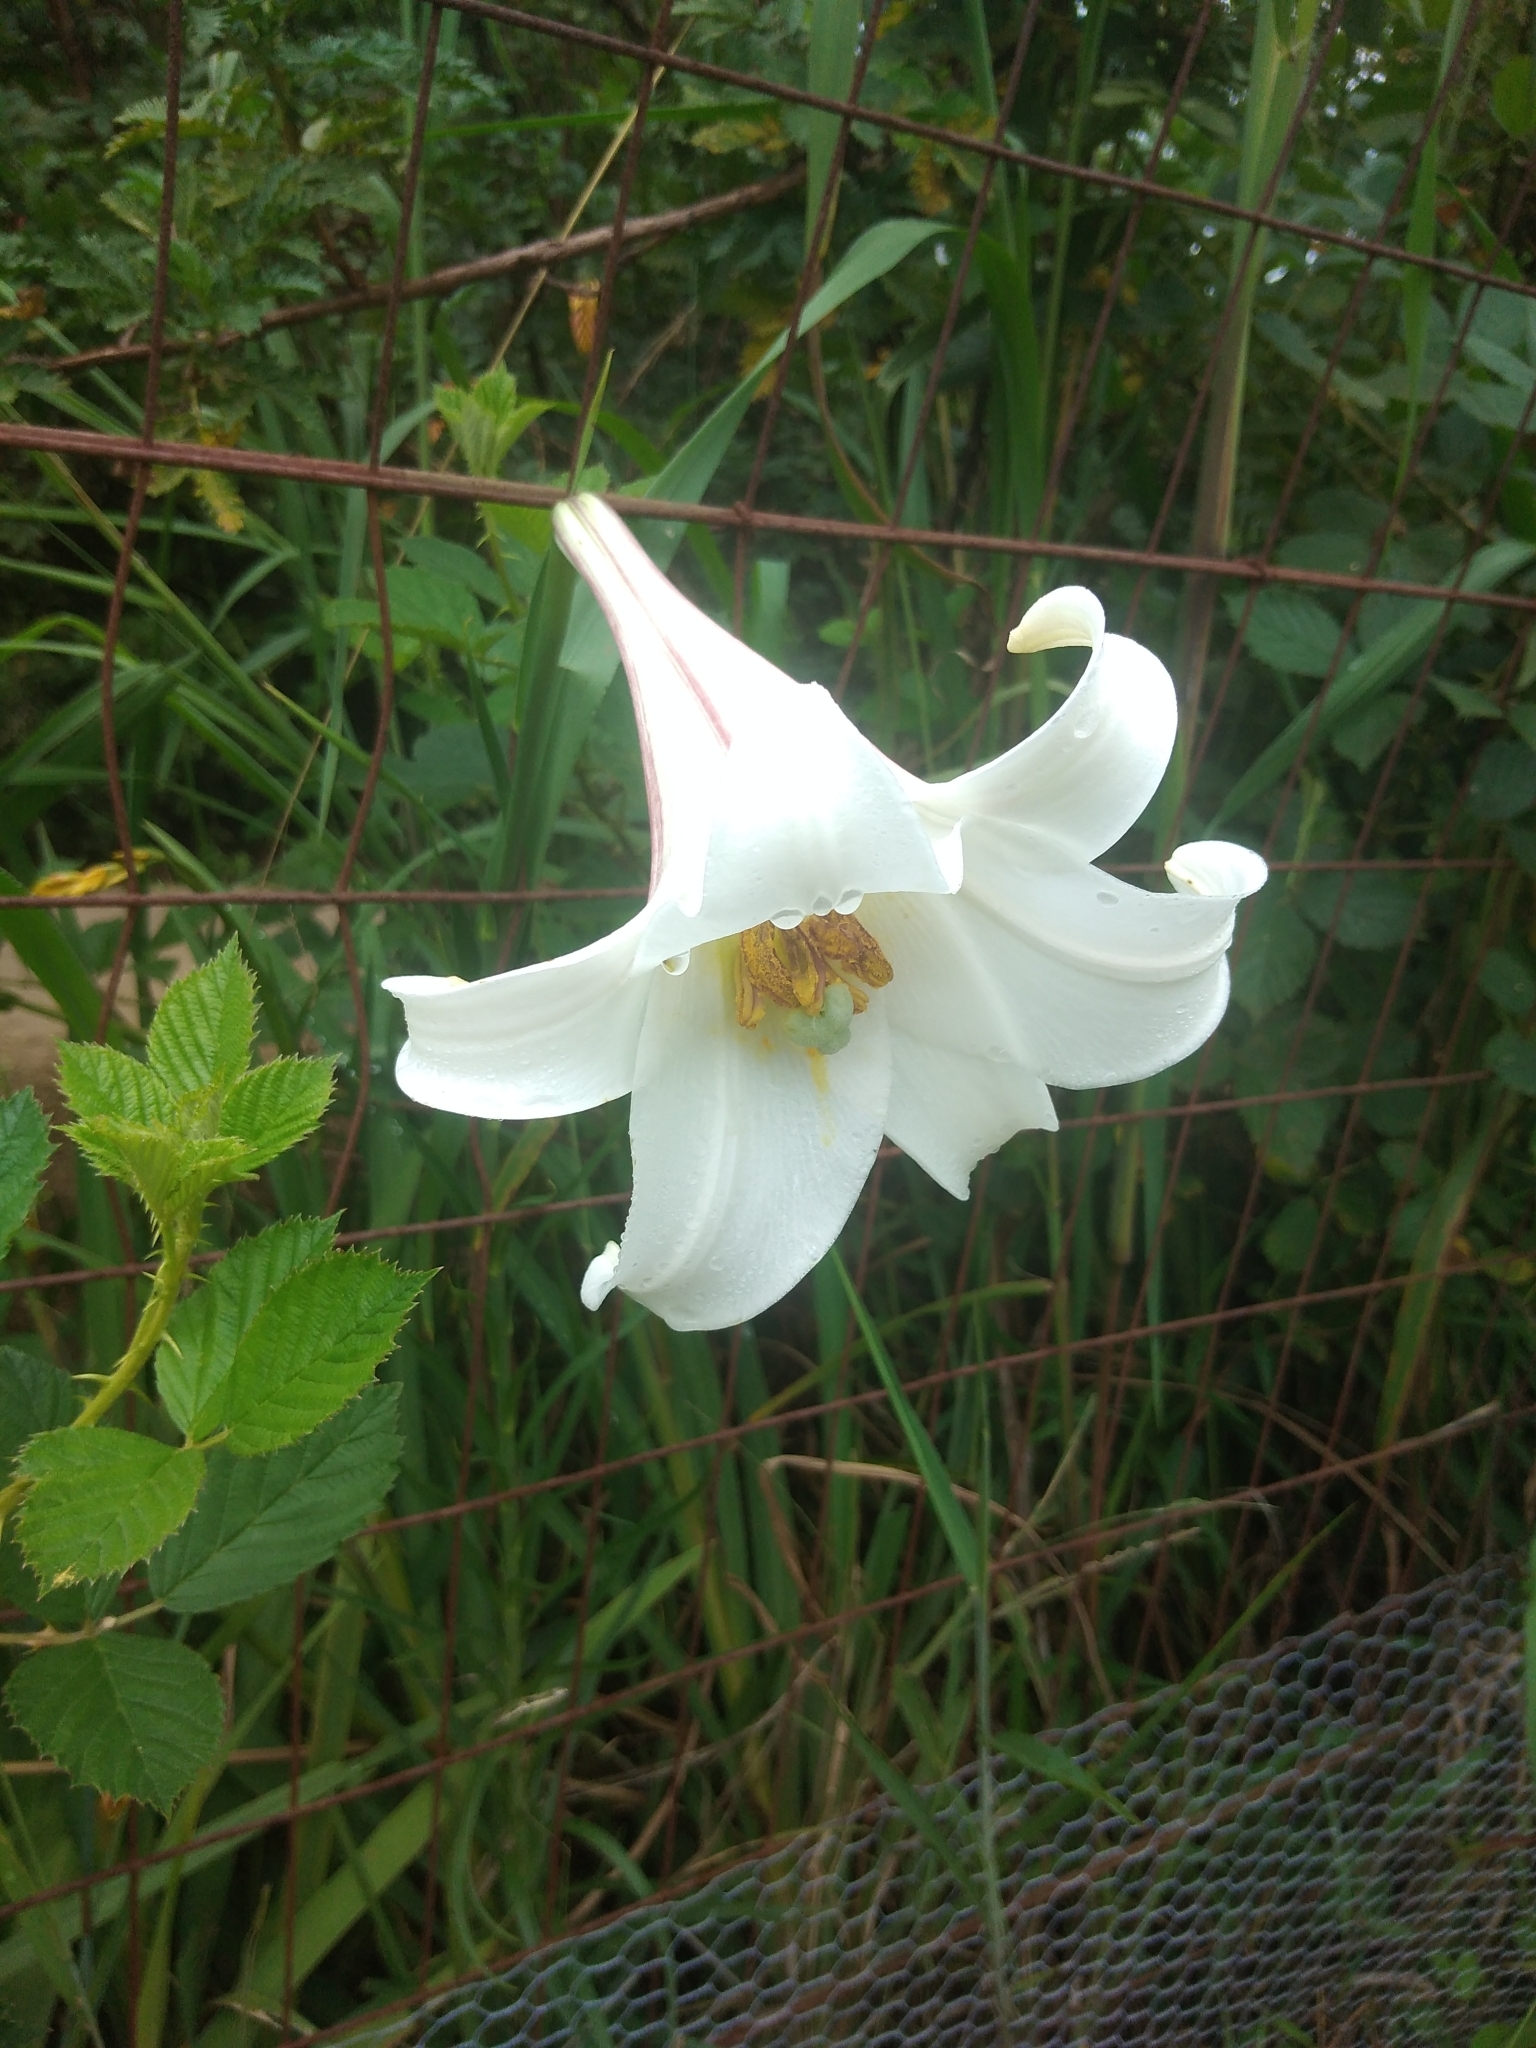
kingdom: Plantae
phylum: Tracheophyta
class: Liliopsida
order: Liliales
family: Liliaceae
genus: Lilium
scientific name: Lilium formosanum
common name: Formosa lily
